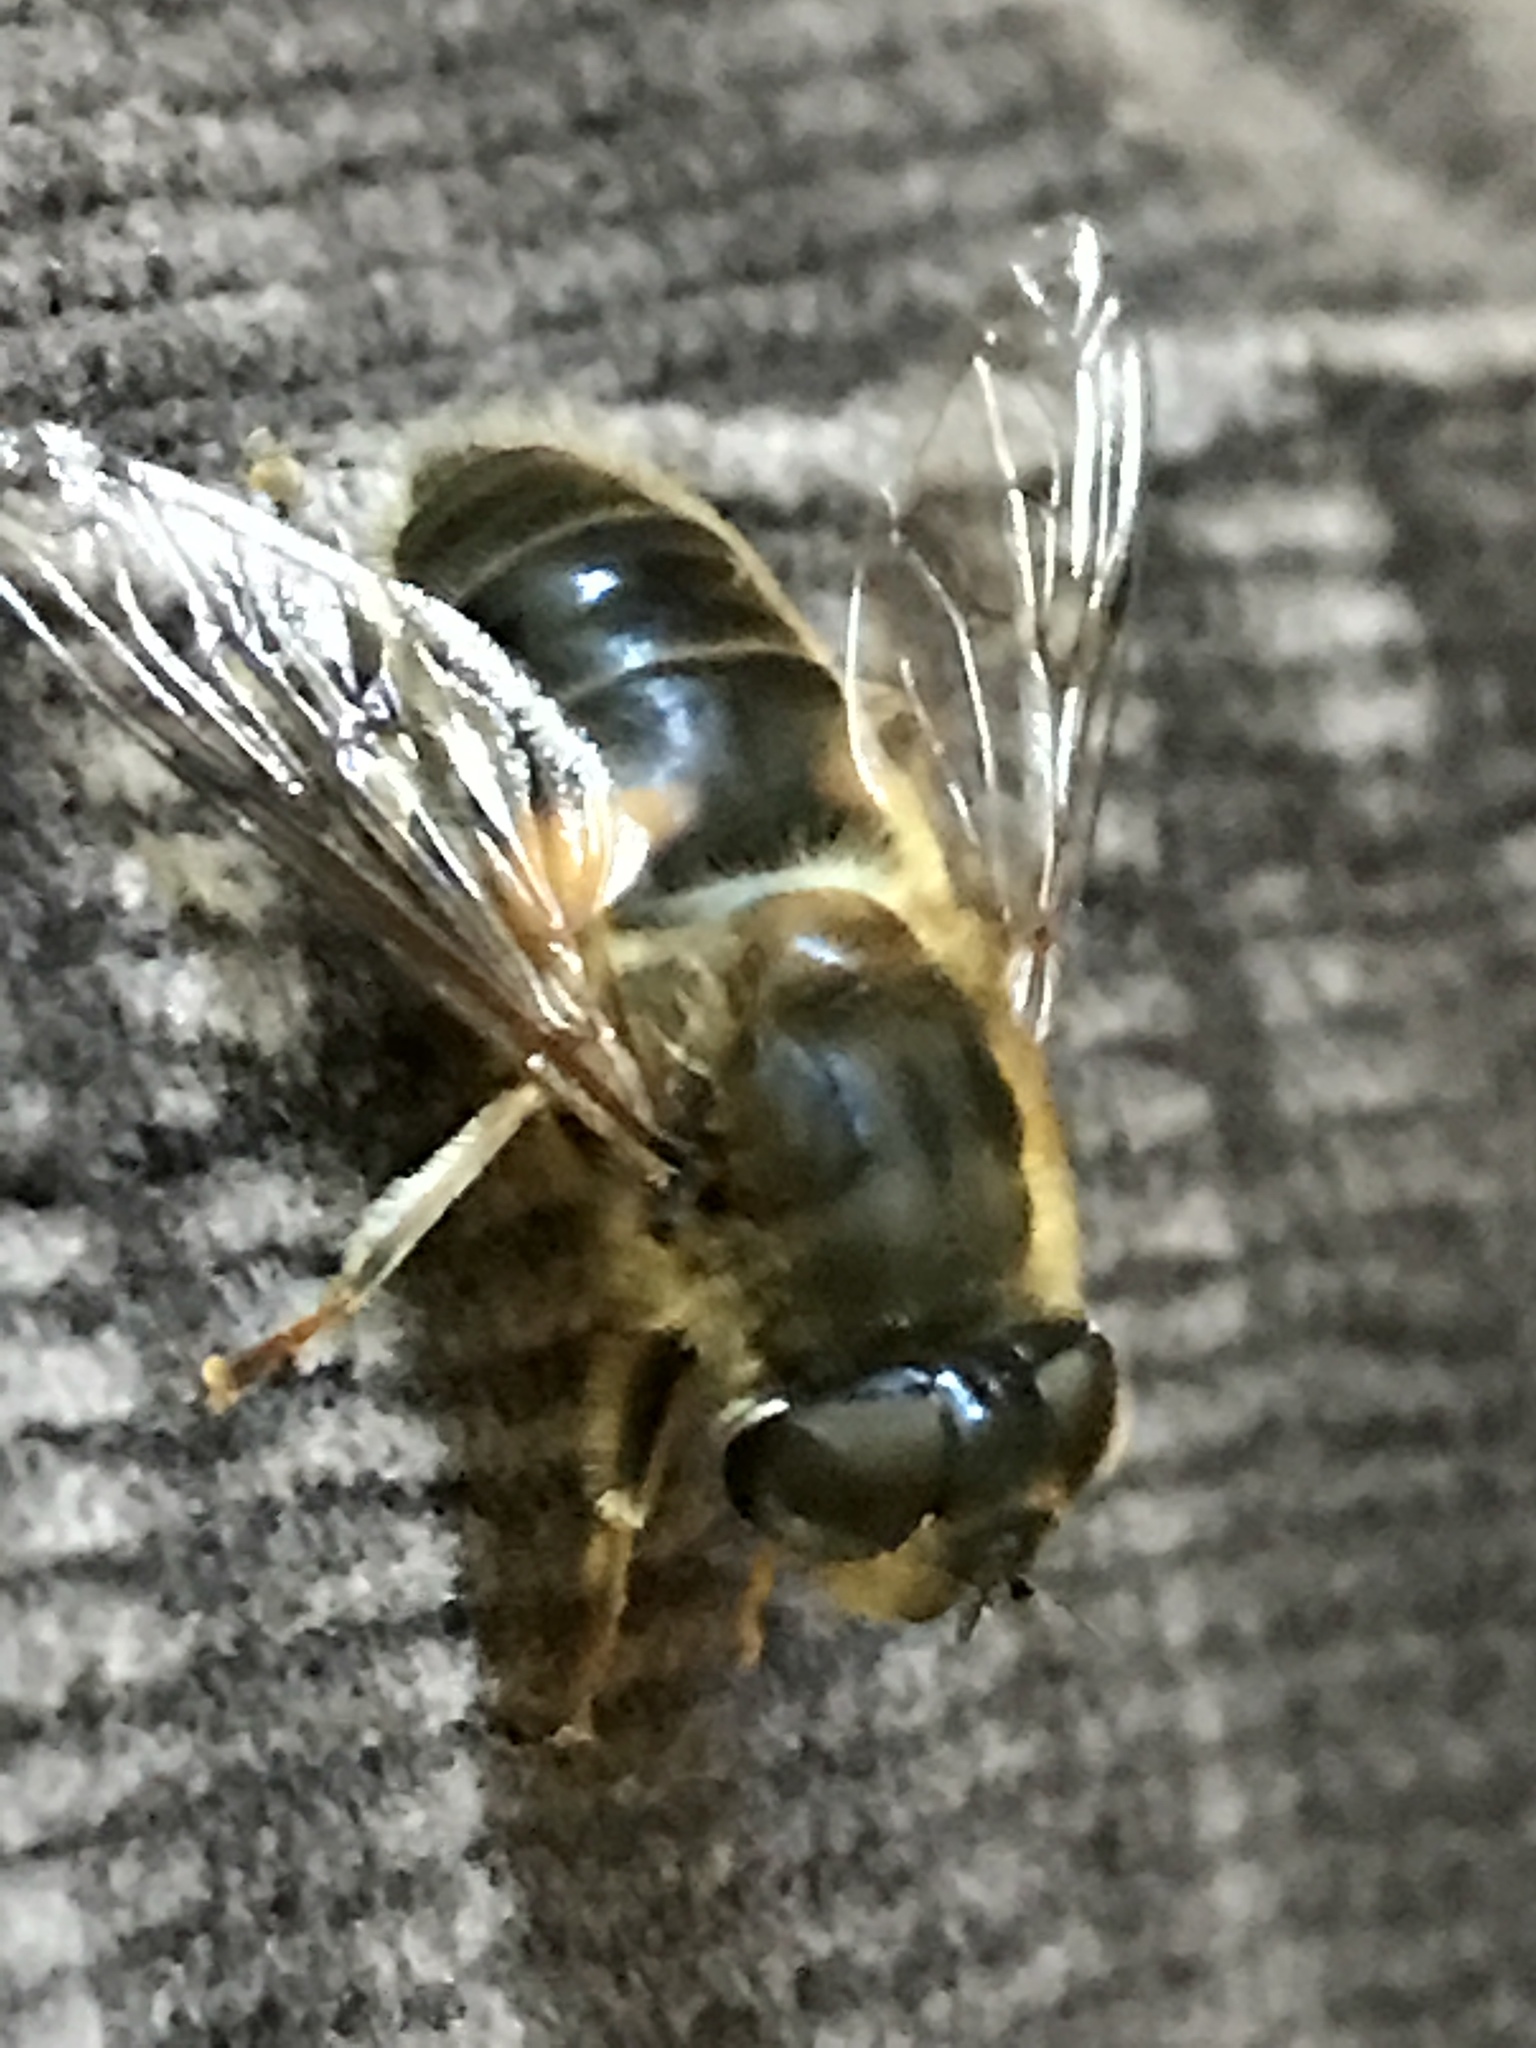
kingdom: Animalia
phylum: Arthropoda
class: Insecta
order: Diptera
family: Syrphidae
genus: Eristalis
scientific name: Eristalis pertinax
